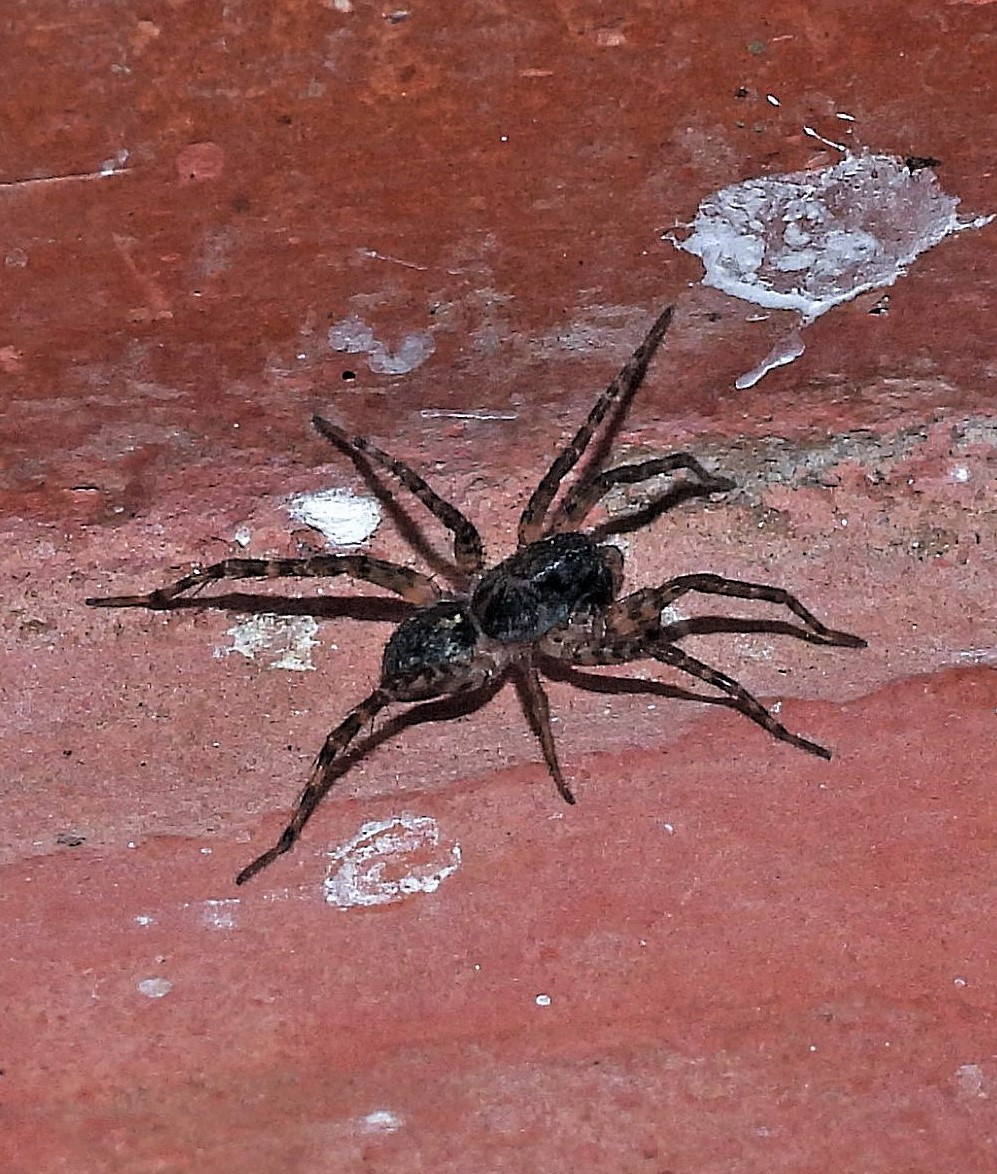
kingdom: Animalia
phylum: Arthropoda
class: Arachnida
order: Araneae
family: Lycosidae
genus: Paratrochosina
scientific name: Paratrochosina amica
